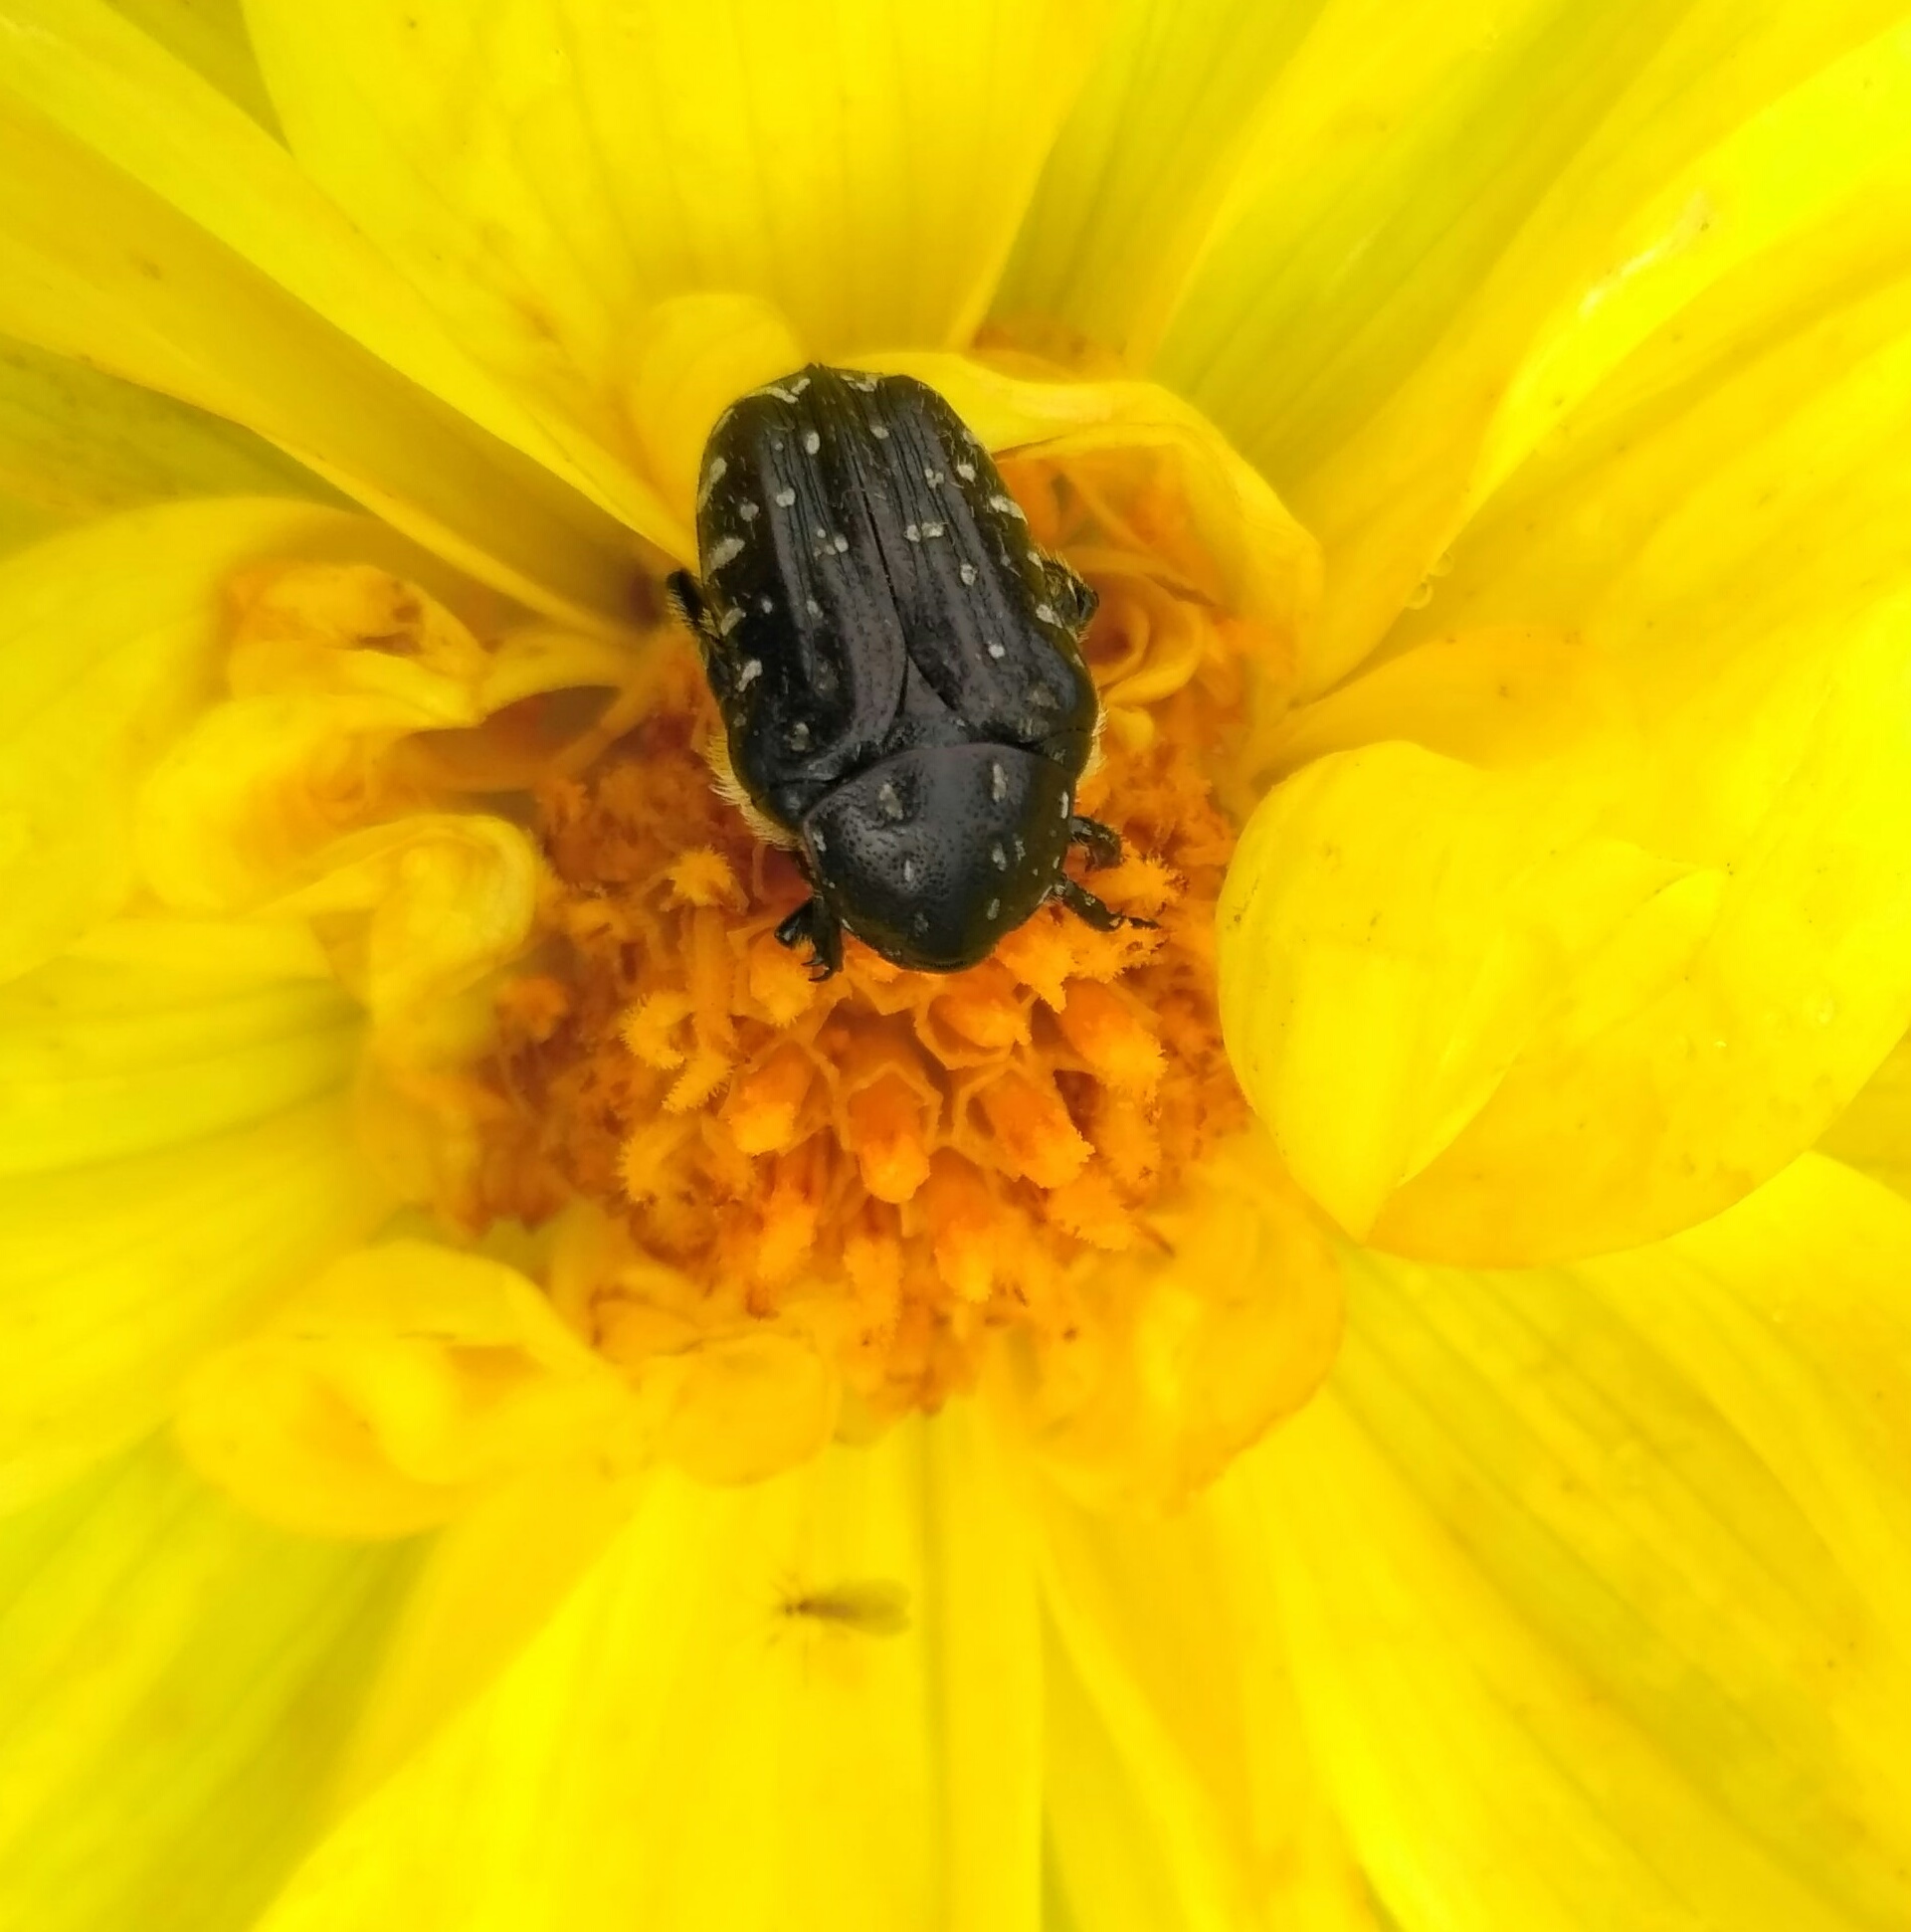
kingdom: Animalia
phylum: Arthropoda
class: Insecta
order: Coleoptera
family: Scarabaeidae
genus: Oxythyrea
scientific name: Oxythyrea funesta
